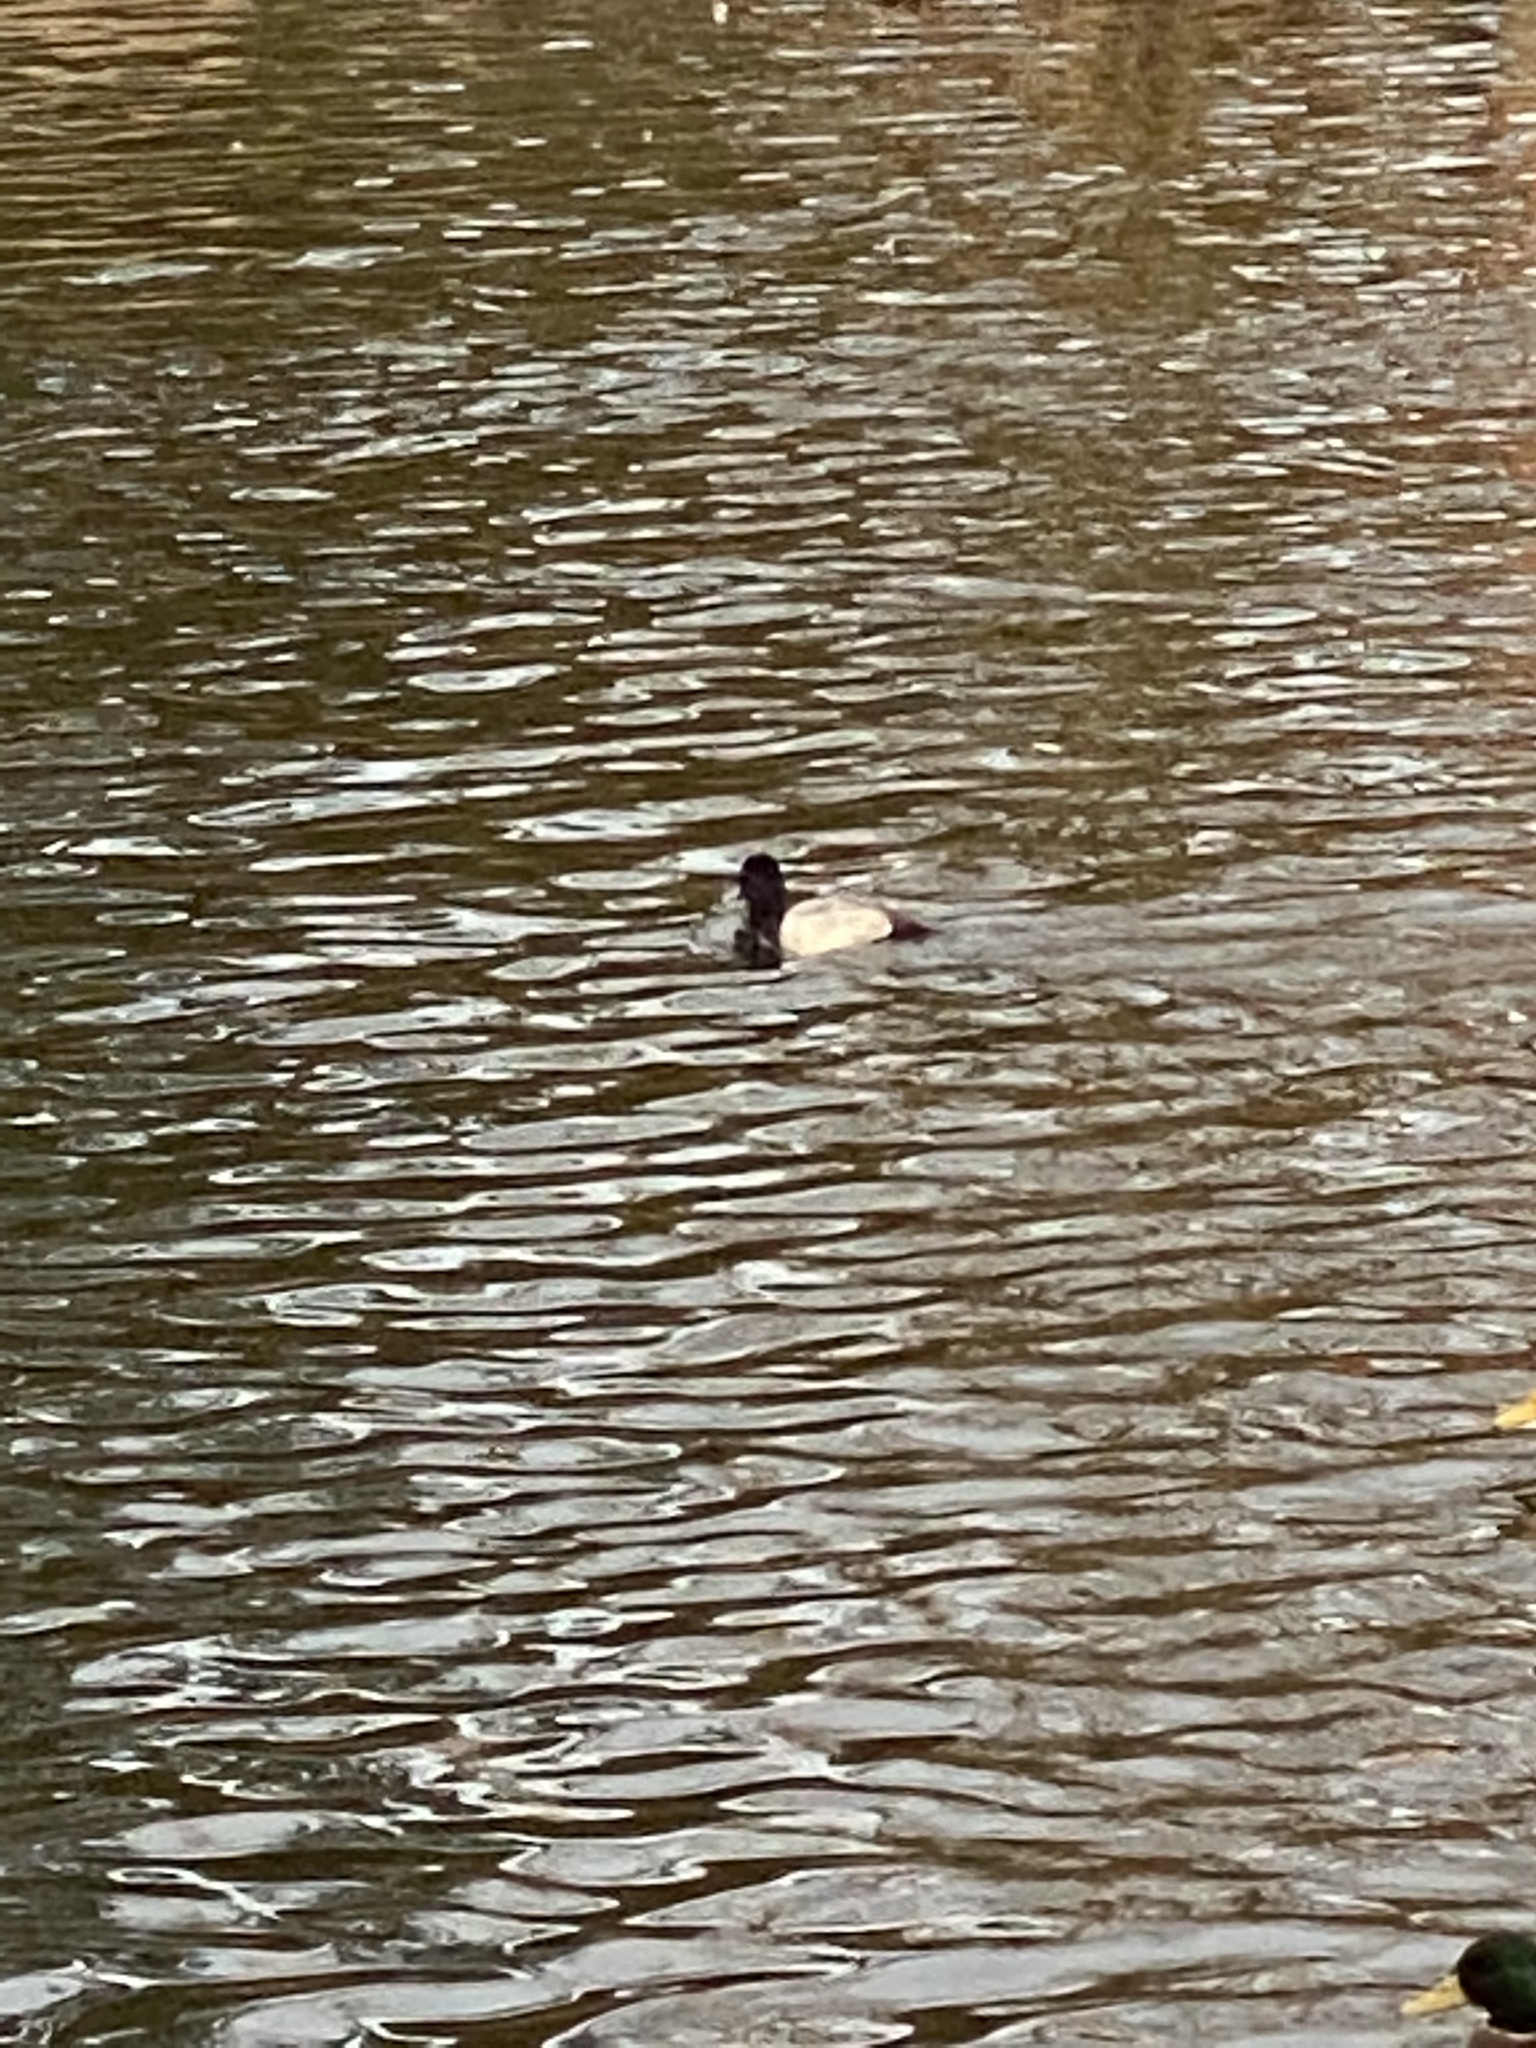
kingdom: Animalia
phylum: Chordata
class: Aves
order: Anseriformes
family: Anatidae
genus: Aythya
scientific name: Aythya affinis
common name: Lesser scaup
